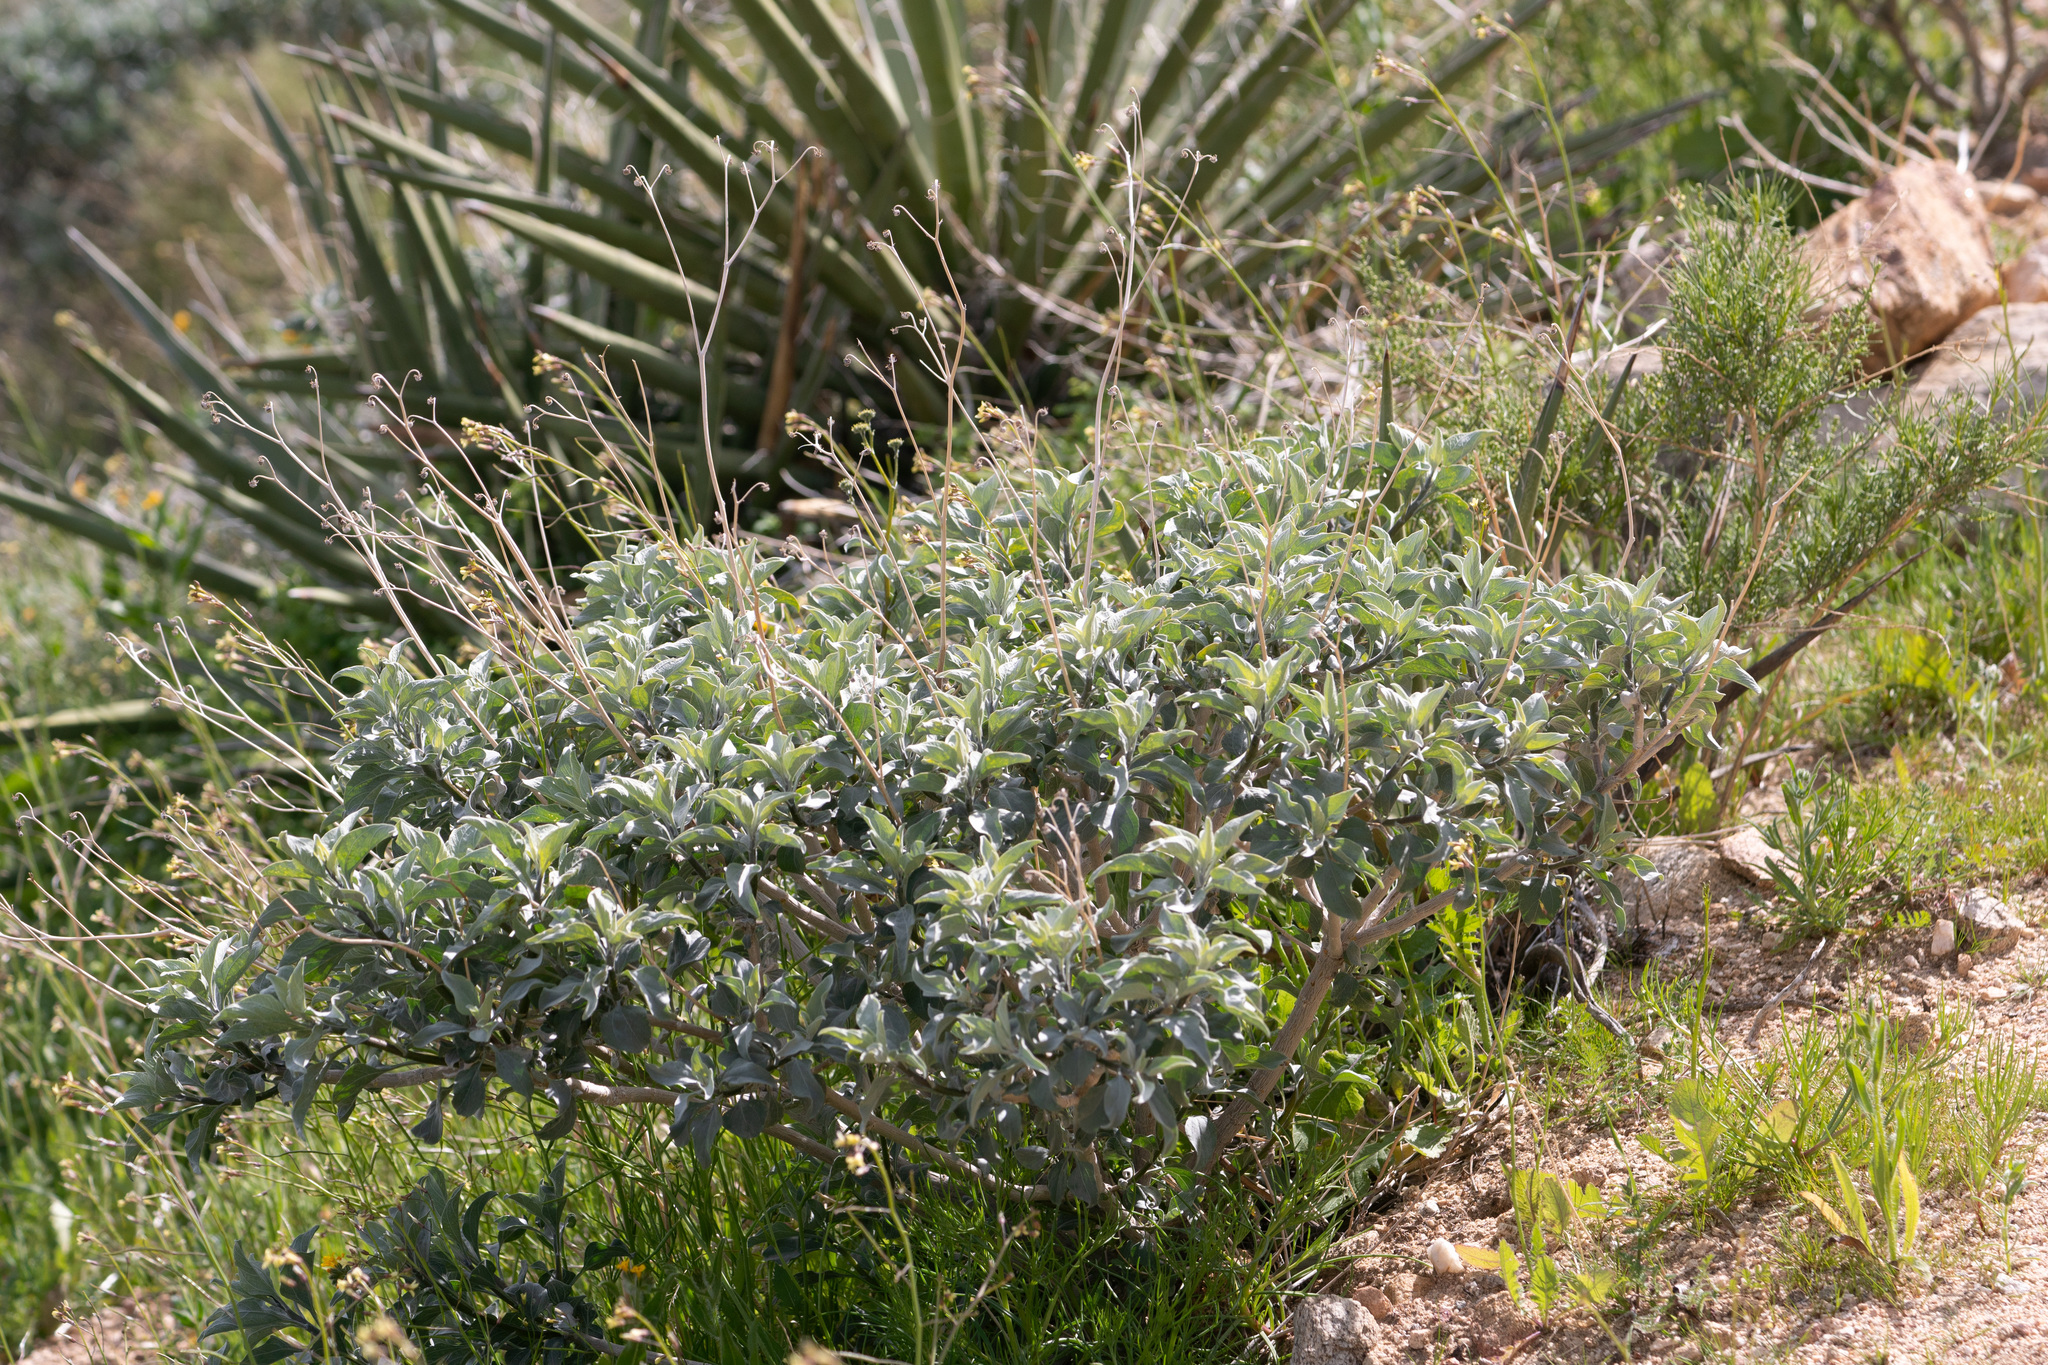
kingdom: Plantae
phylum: Tracheophyta
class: Magnoliopsida
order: Asterales
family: Asteraceae
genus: Encelia
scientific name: Encelia farinosa
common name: Brittlebush
